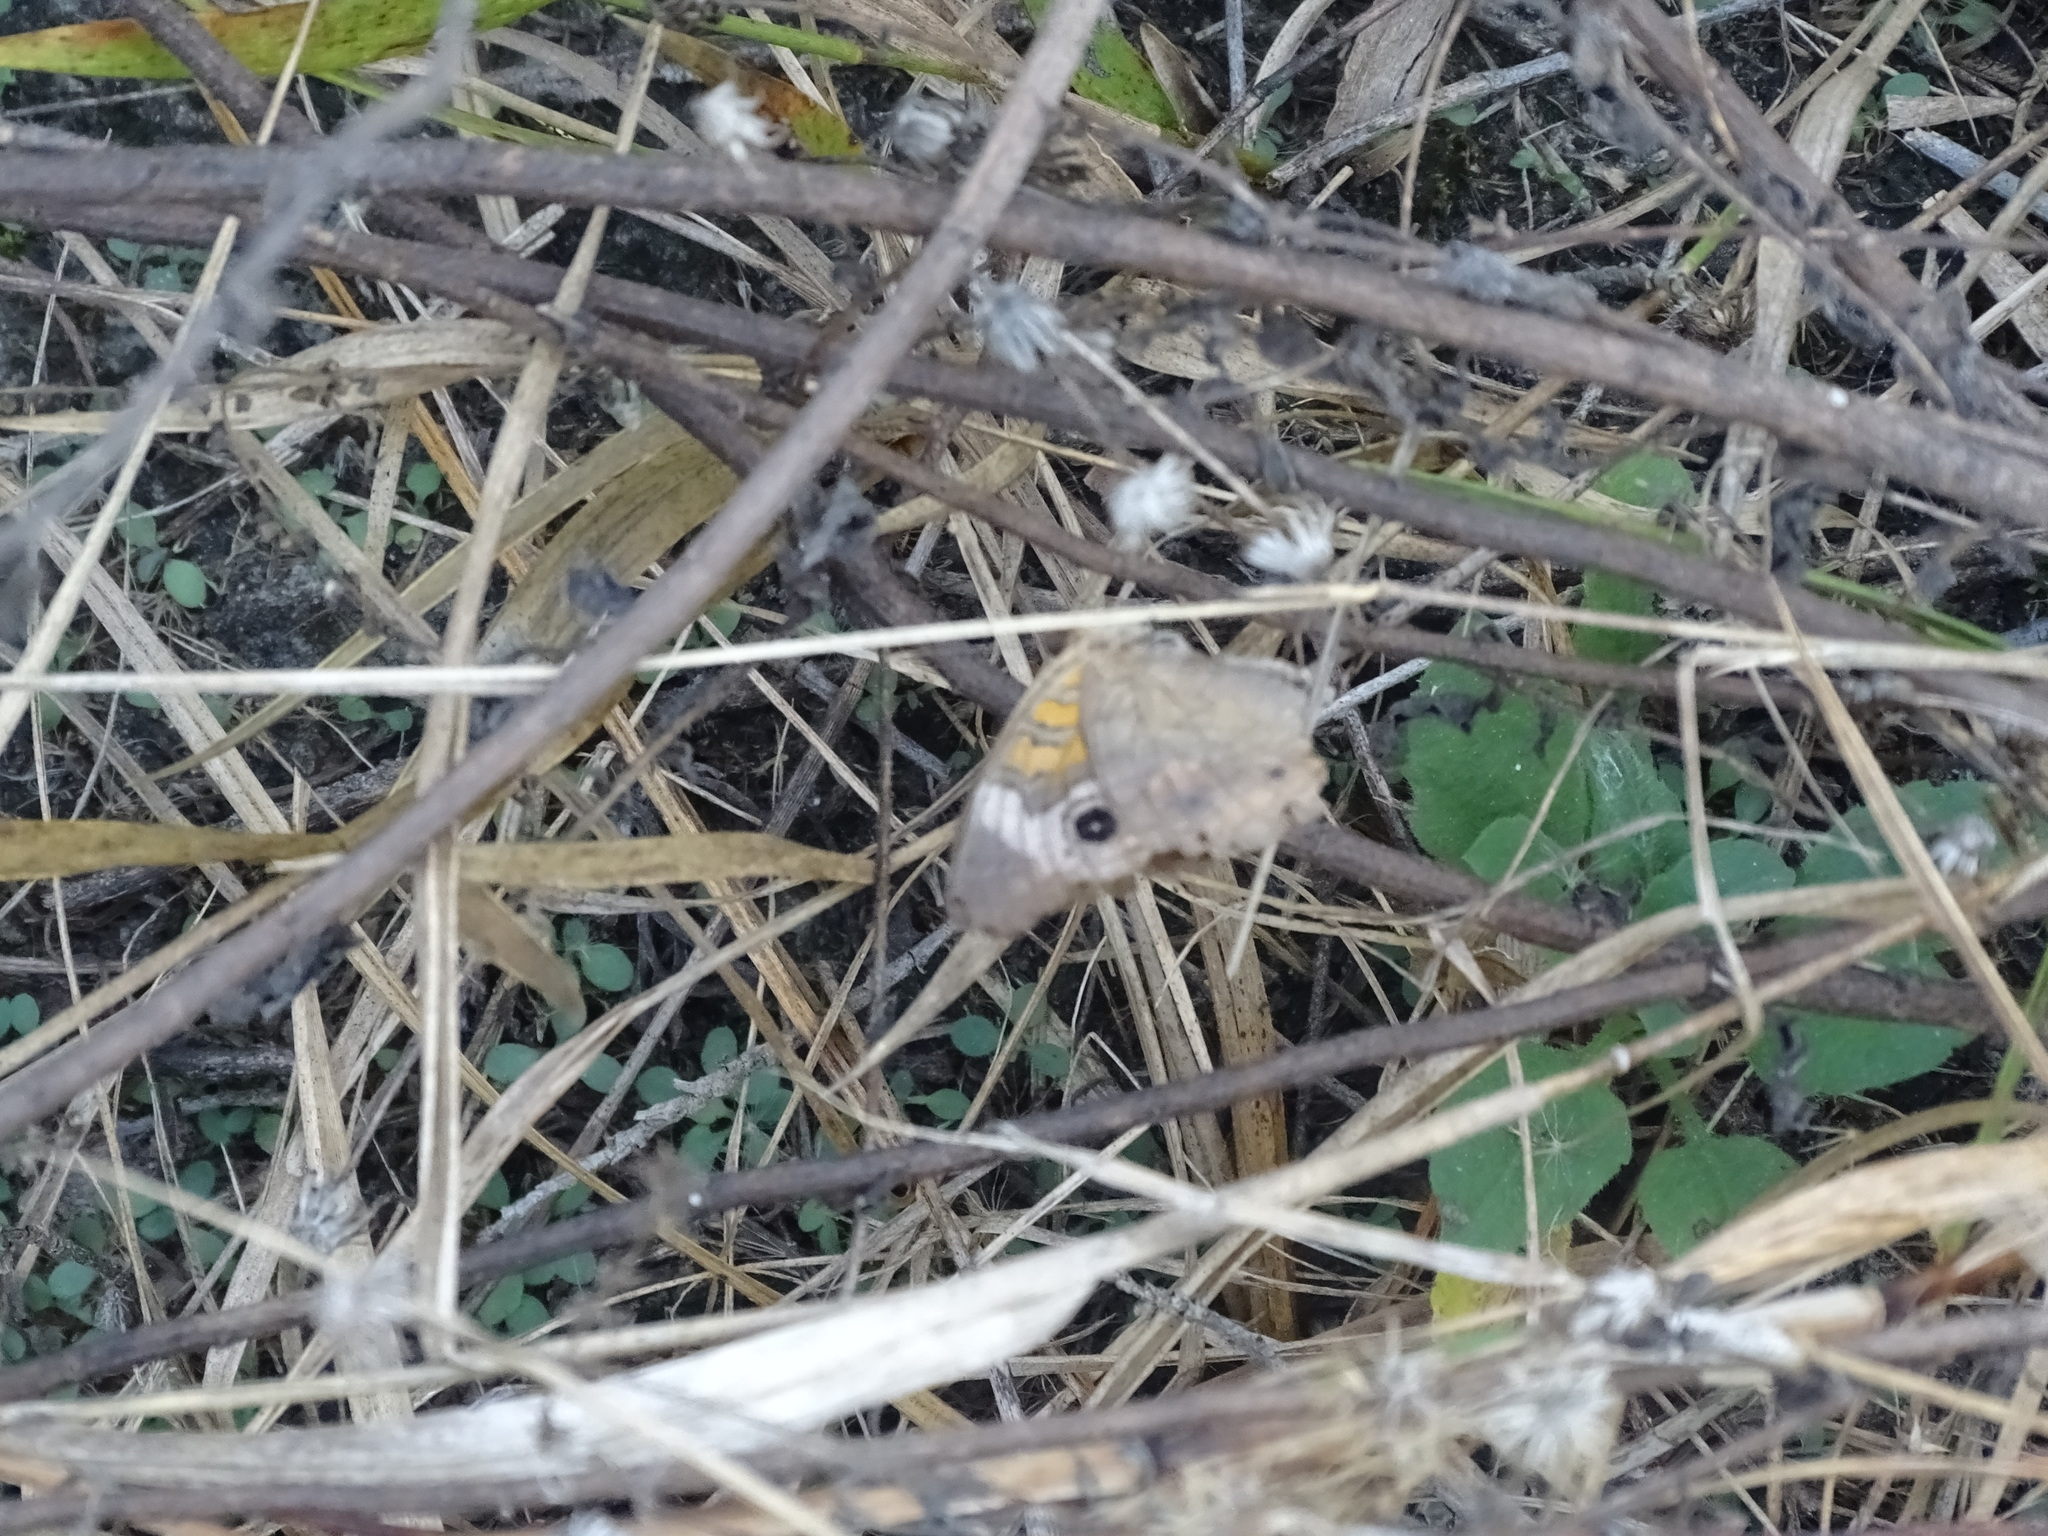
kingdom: Animalia
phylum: Arthropoda
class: Insecta
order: Lepidoptera
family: Nymphalidae
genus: Junonia
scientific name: Junonia coenia
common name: Common buckeye
